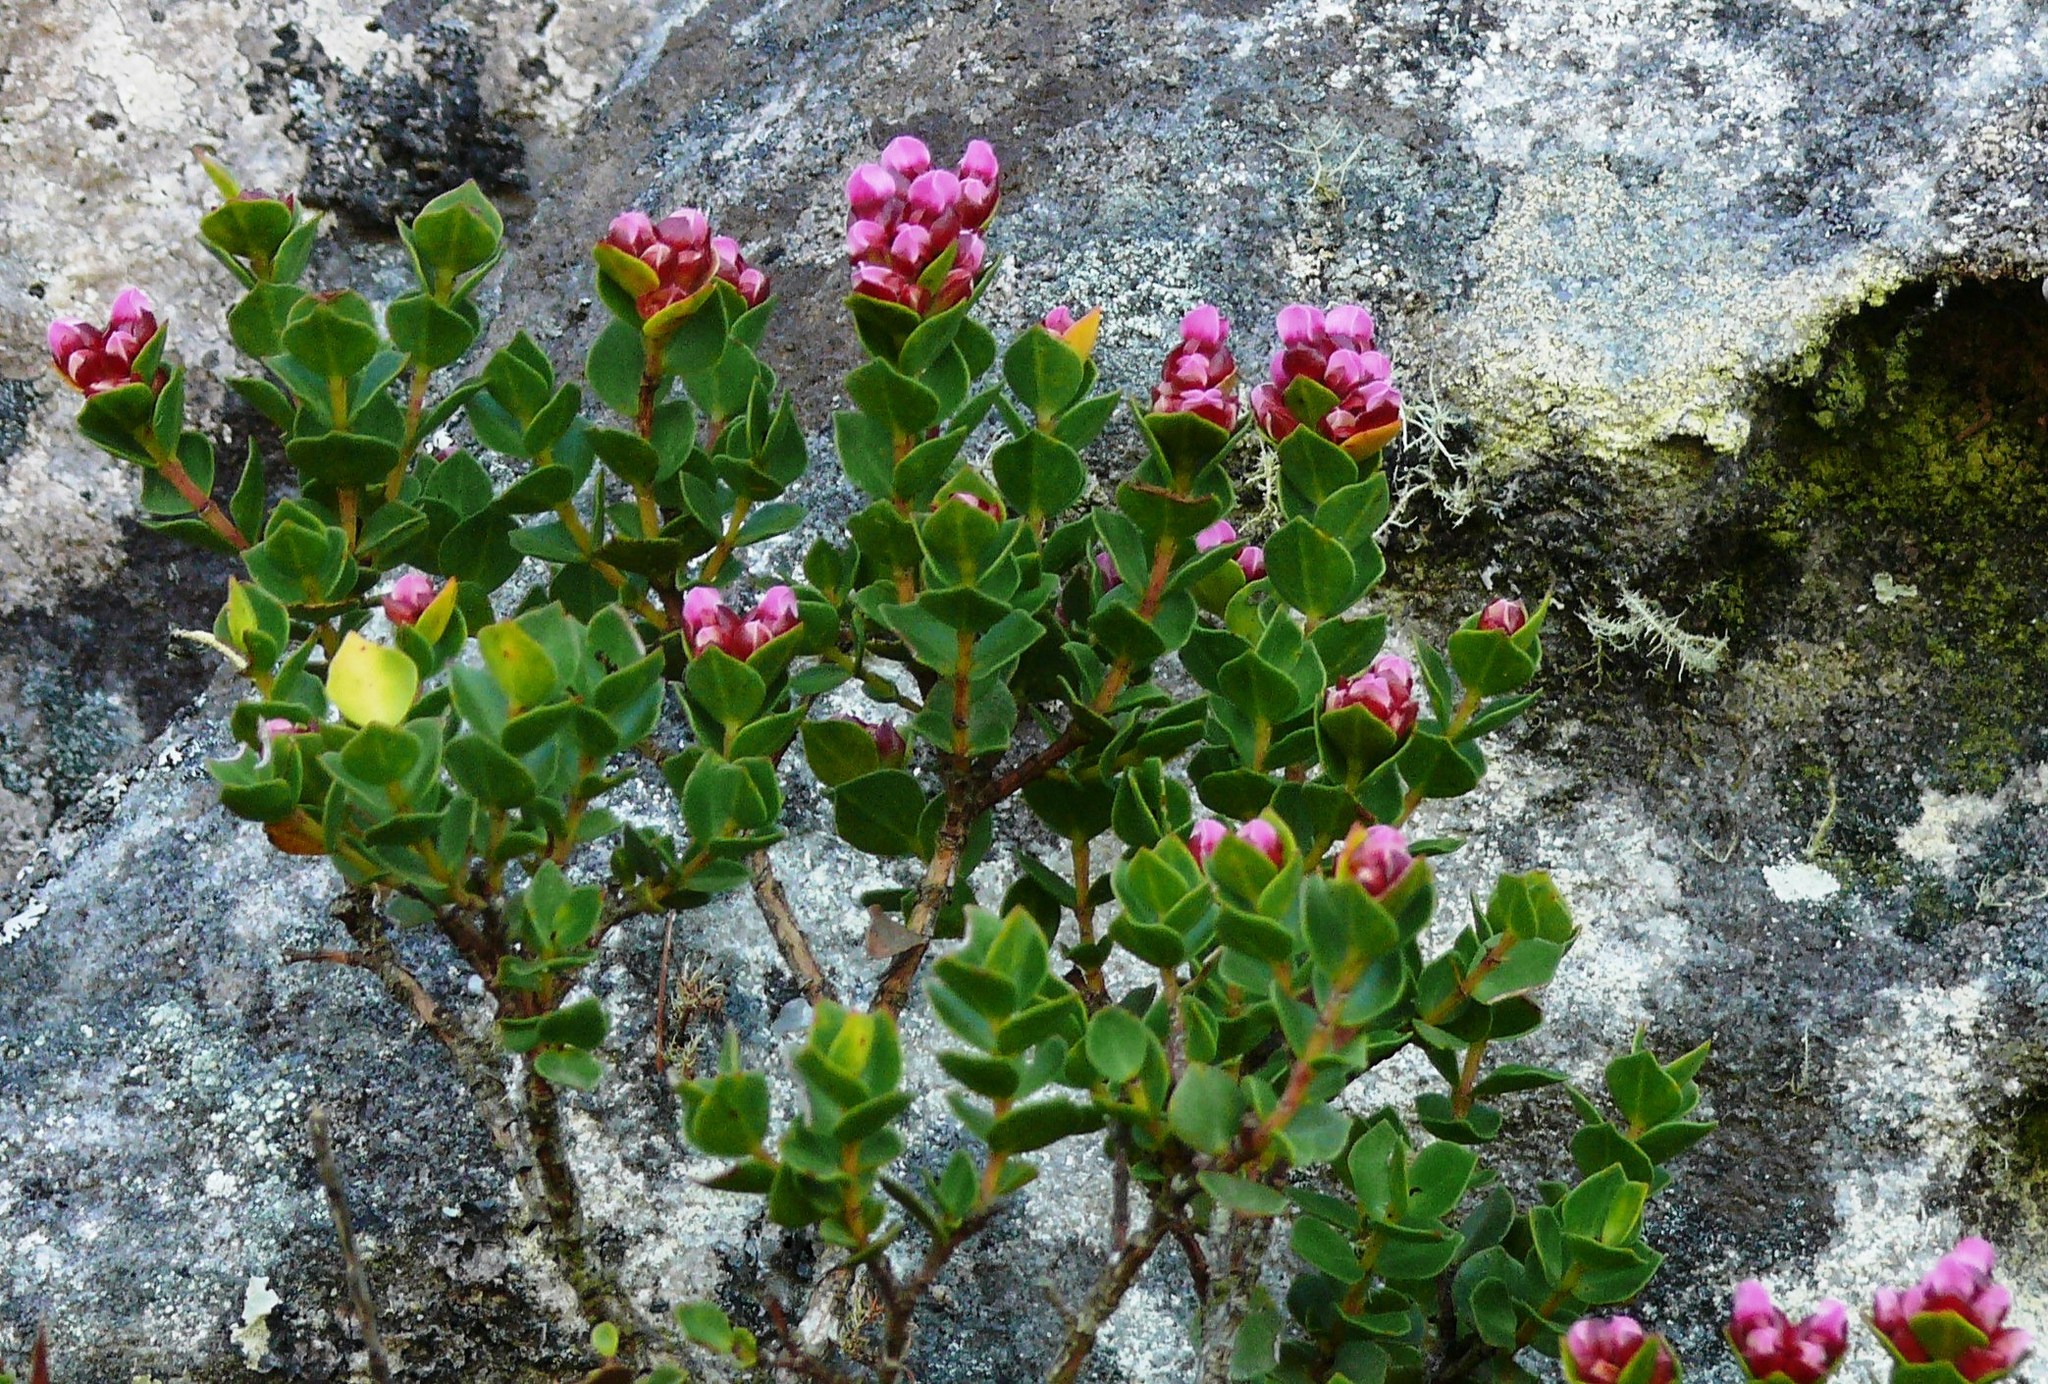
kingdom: Plantae
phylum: Tracheophyta
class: Magnoliopsida
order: Myrtales
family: Penaeaceae
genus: Brachysiphon
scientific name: Brachysiphon fucatus
